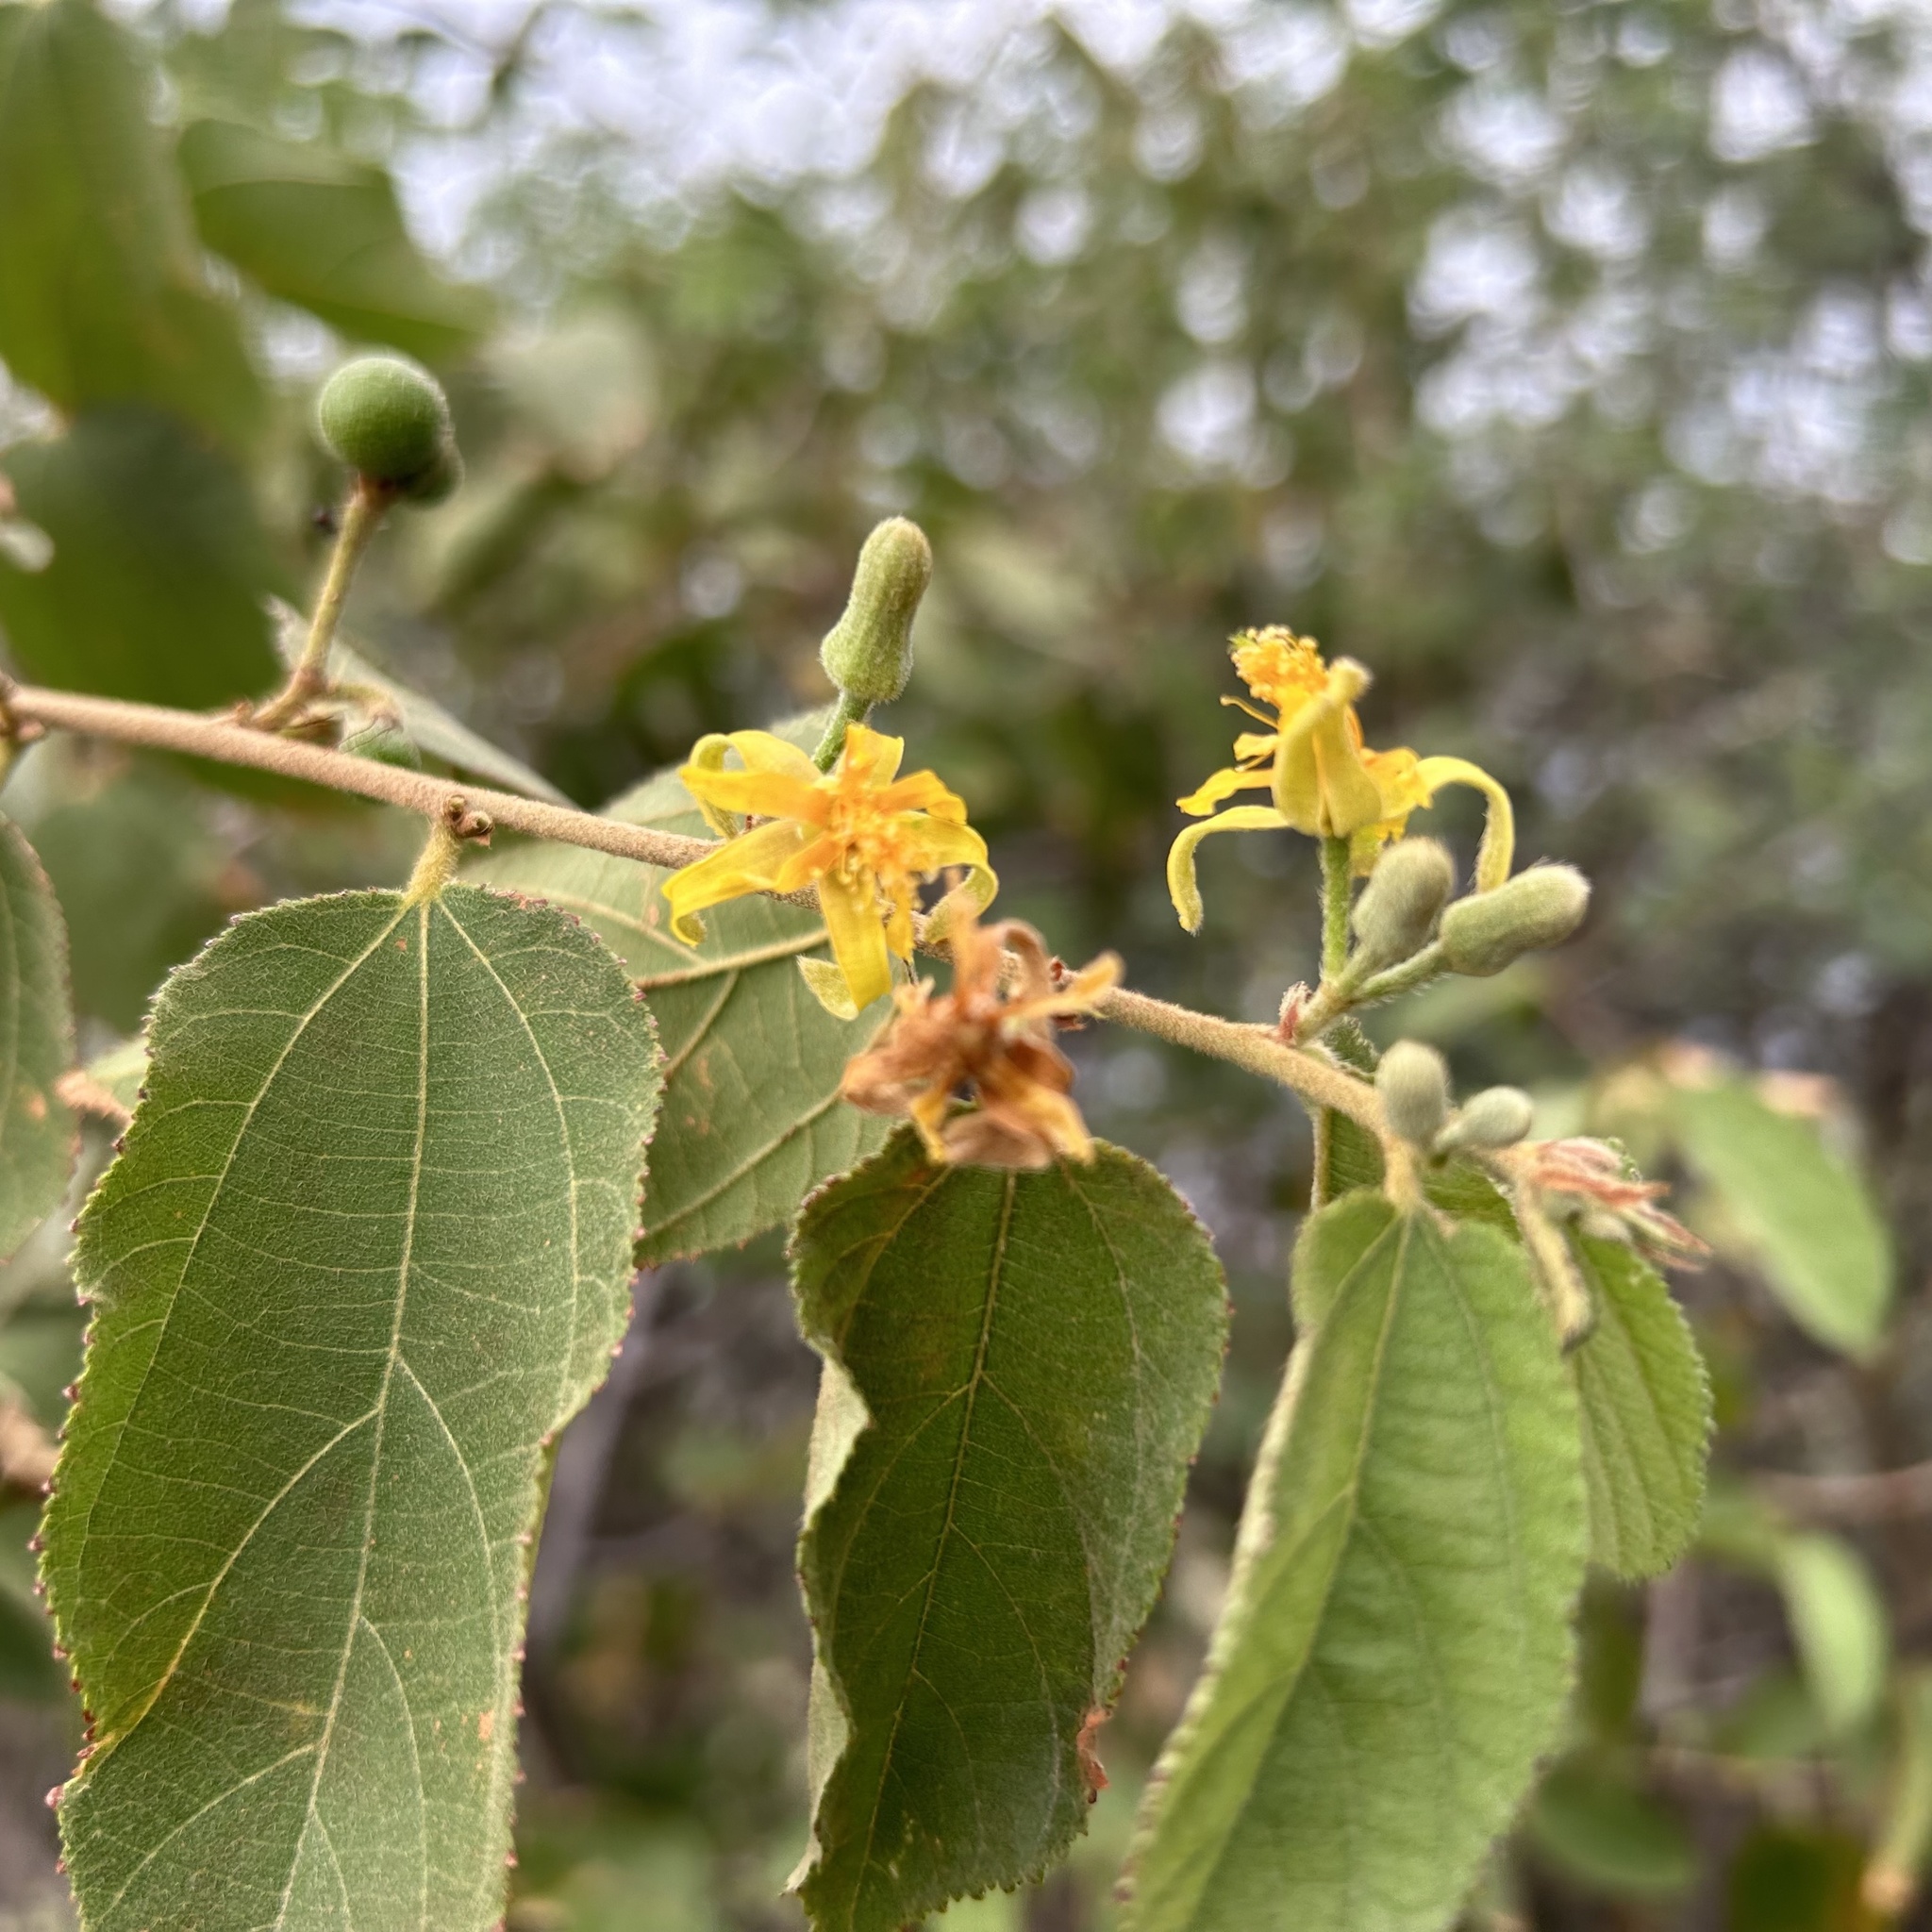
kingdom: Plantae
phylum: Tracheophyta
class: Magnoliopsida
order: Malvales
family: Malvaceae
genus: Grewia
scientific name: Grewia flavescens
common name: Sandpaper raisin
